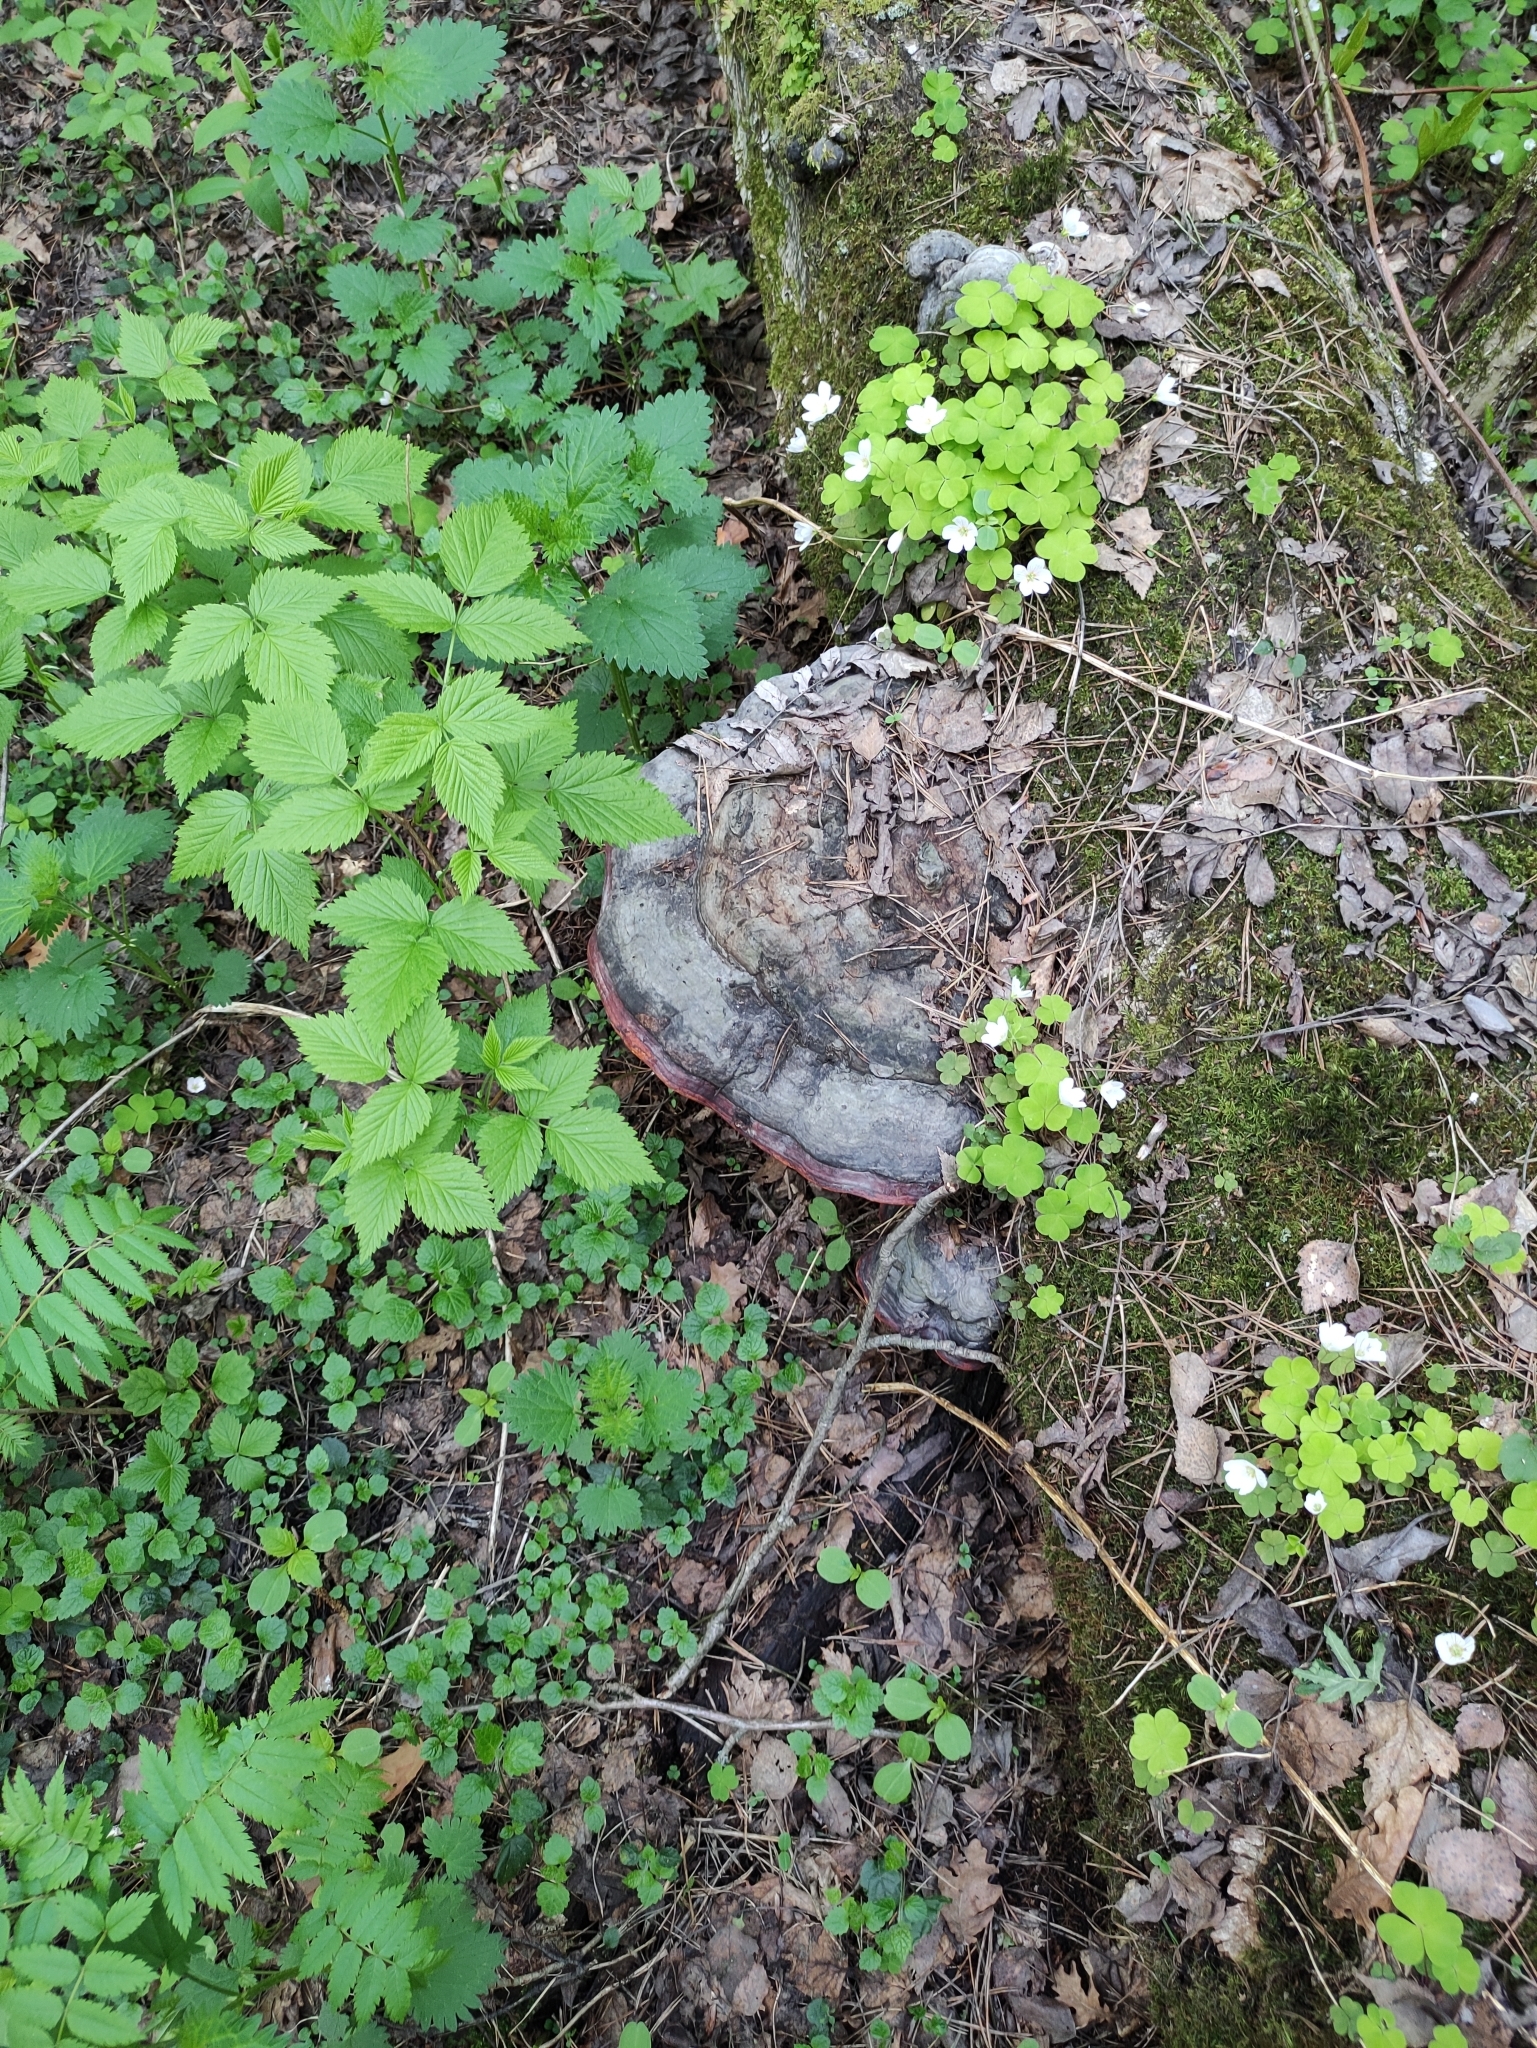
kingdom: Fungi
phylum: Basidiomycota
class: Agaricomycetes
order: Polyporales
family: Fomitopsidaceae
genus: Fomitopsis
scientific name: Fomitopsis pinicola
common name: Red-belted bracket
